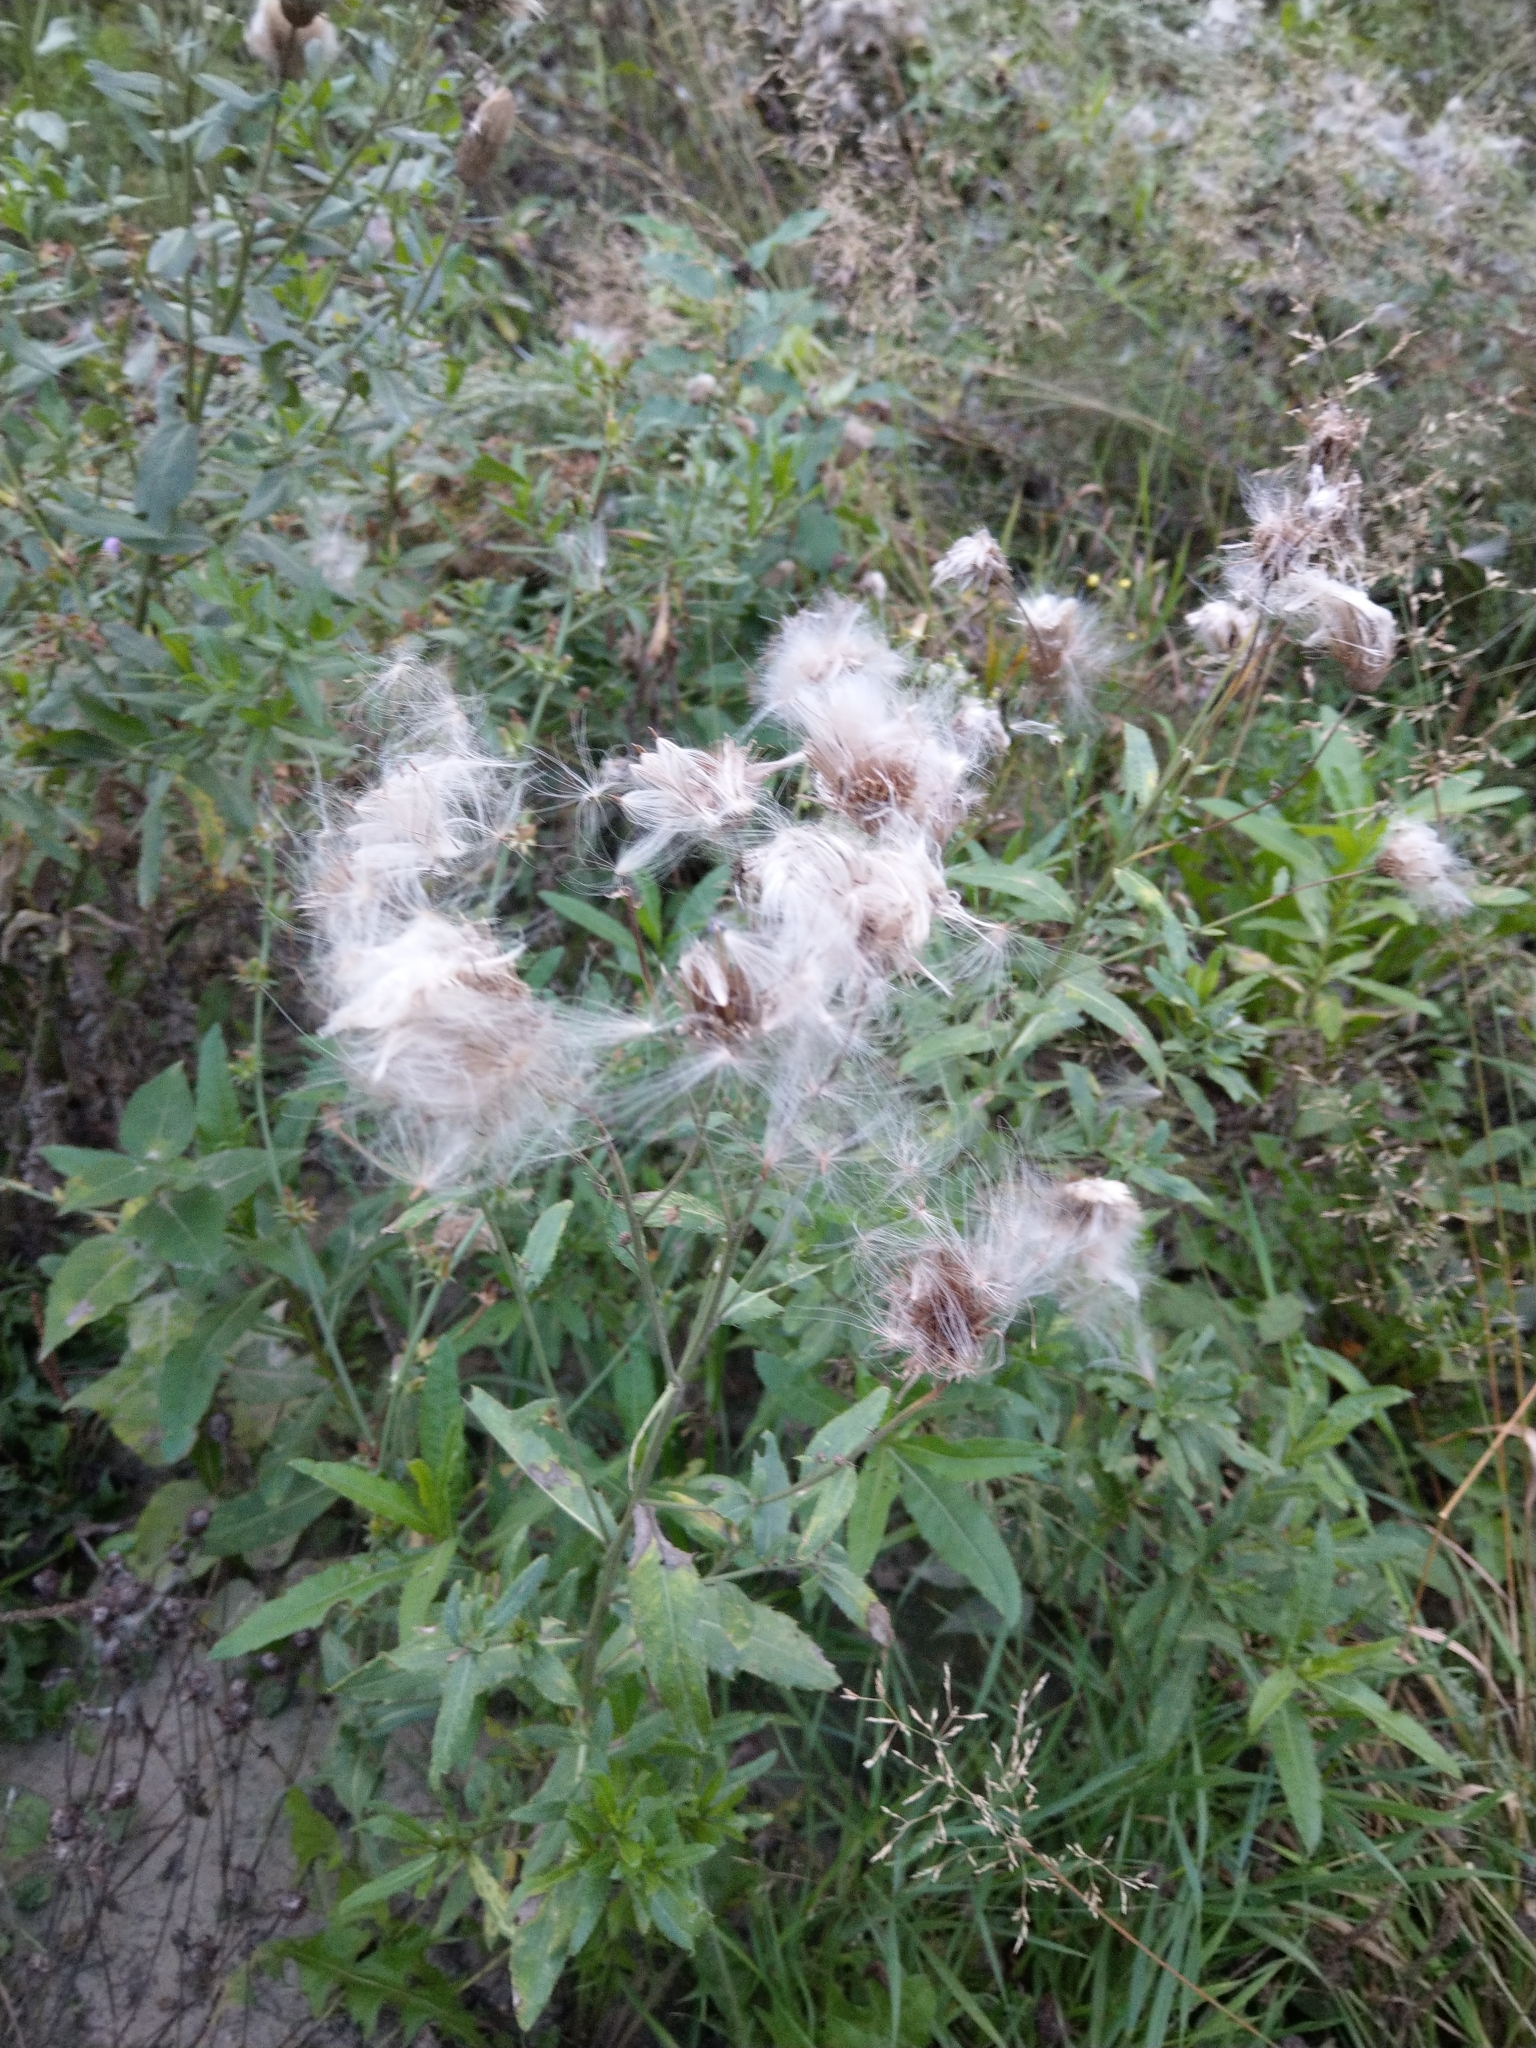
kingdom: Plantae
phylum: Tracheophyta
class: Magnoliopsida
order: Asterales
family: Asteraceae
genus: Cirsium
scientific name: Cirsium arvense
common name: Creeping thistle
